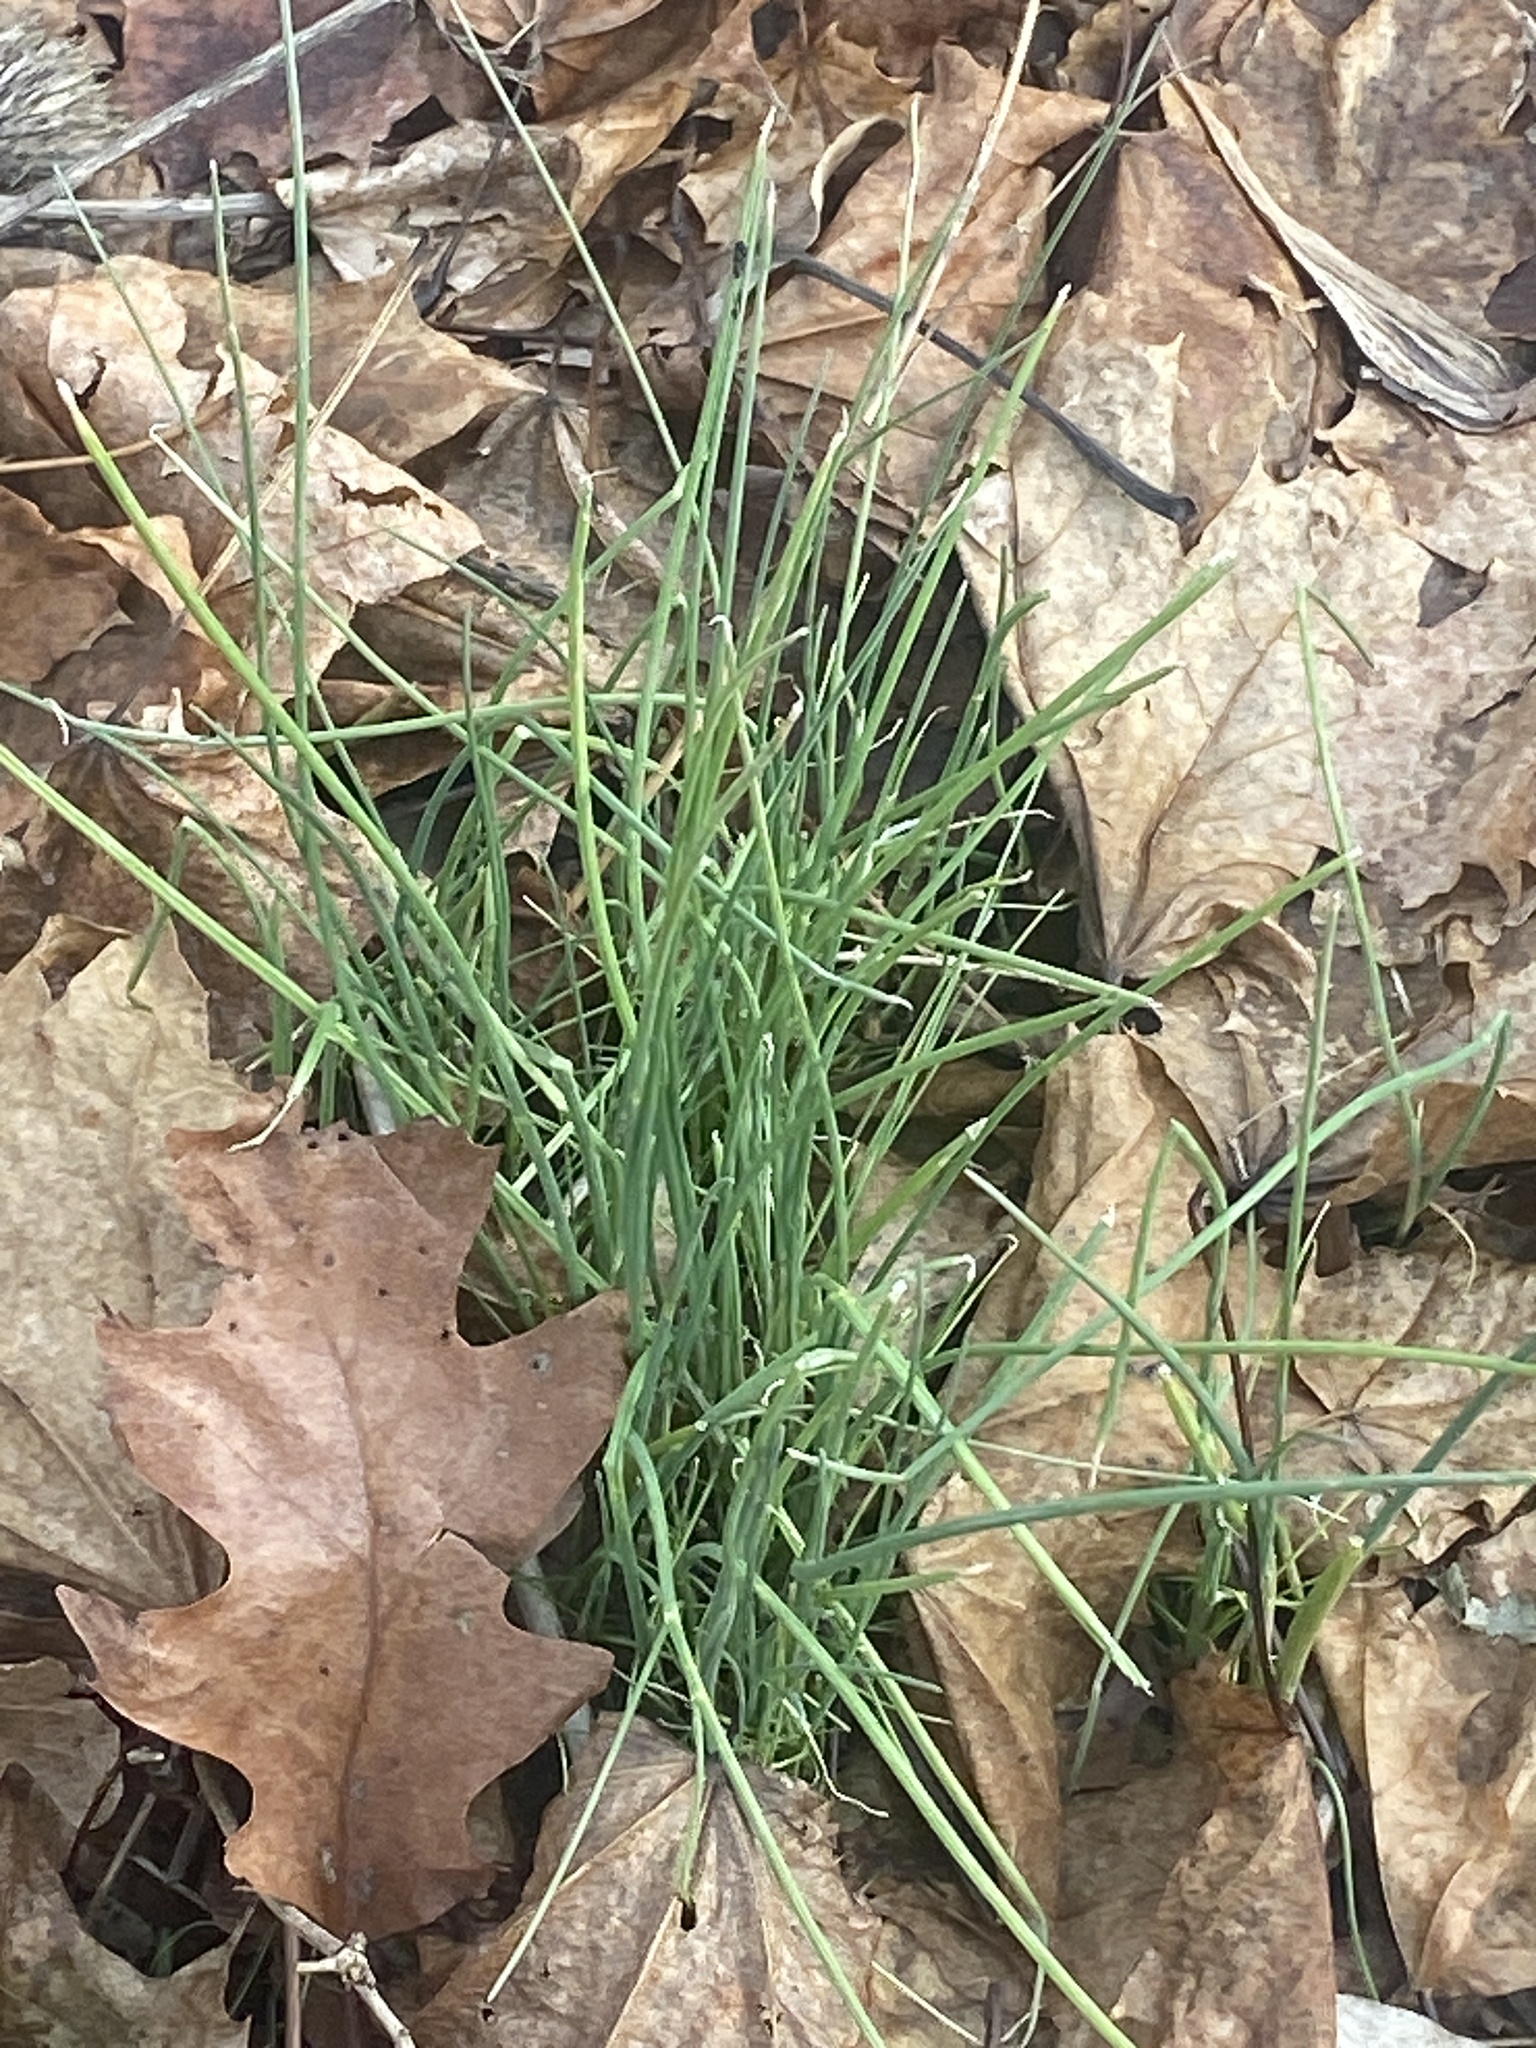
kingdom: Plantae
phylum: Tracheophyta
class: Liliopsida
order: Asparagales
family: Amaryllidaceae
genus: Allium
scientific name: Allium vineale
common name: Crow garlic
